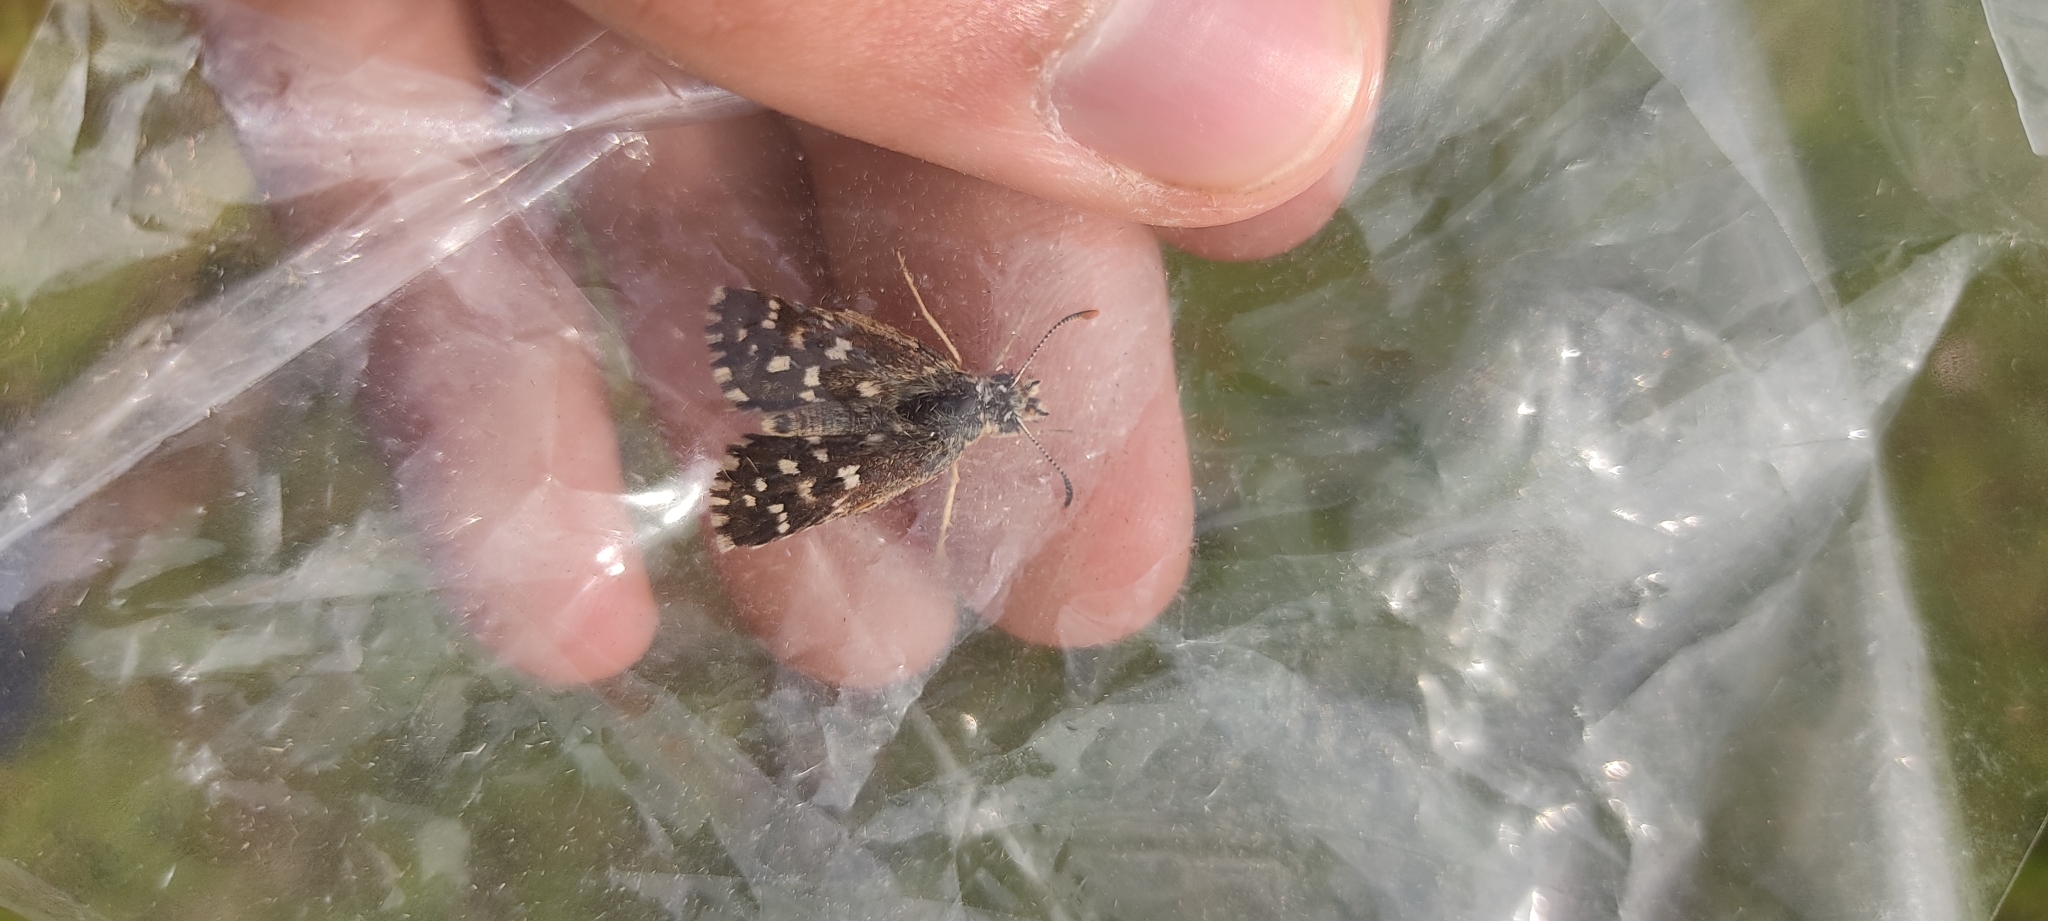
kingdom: Animalia
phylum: Arthropoda
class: Insecta
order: Lepidoptera
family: Hesperiidae
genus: Pyrgus
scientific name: Pyrgus malvoides
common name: Southern grizzled skipper
